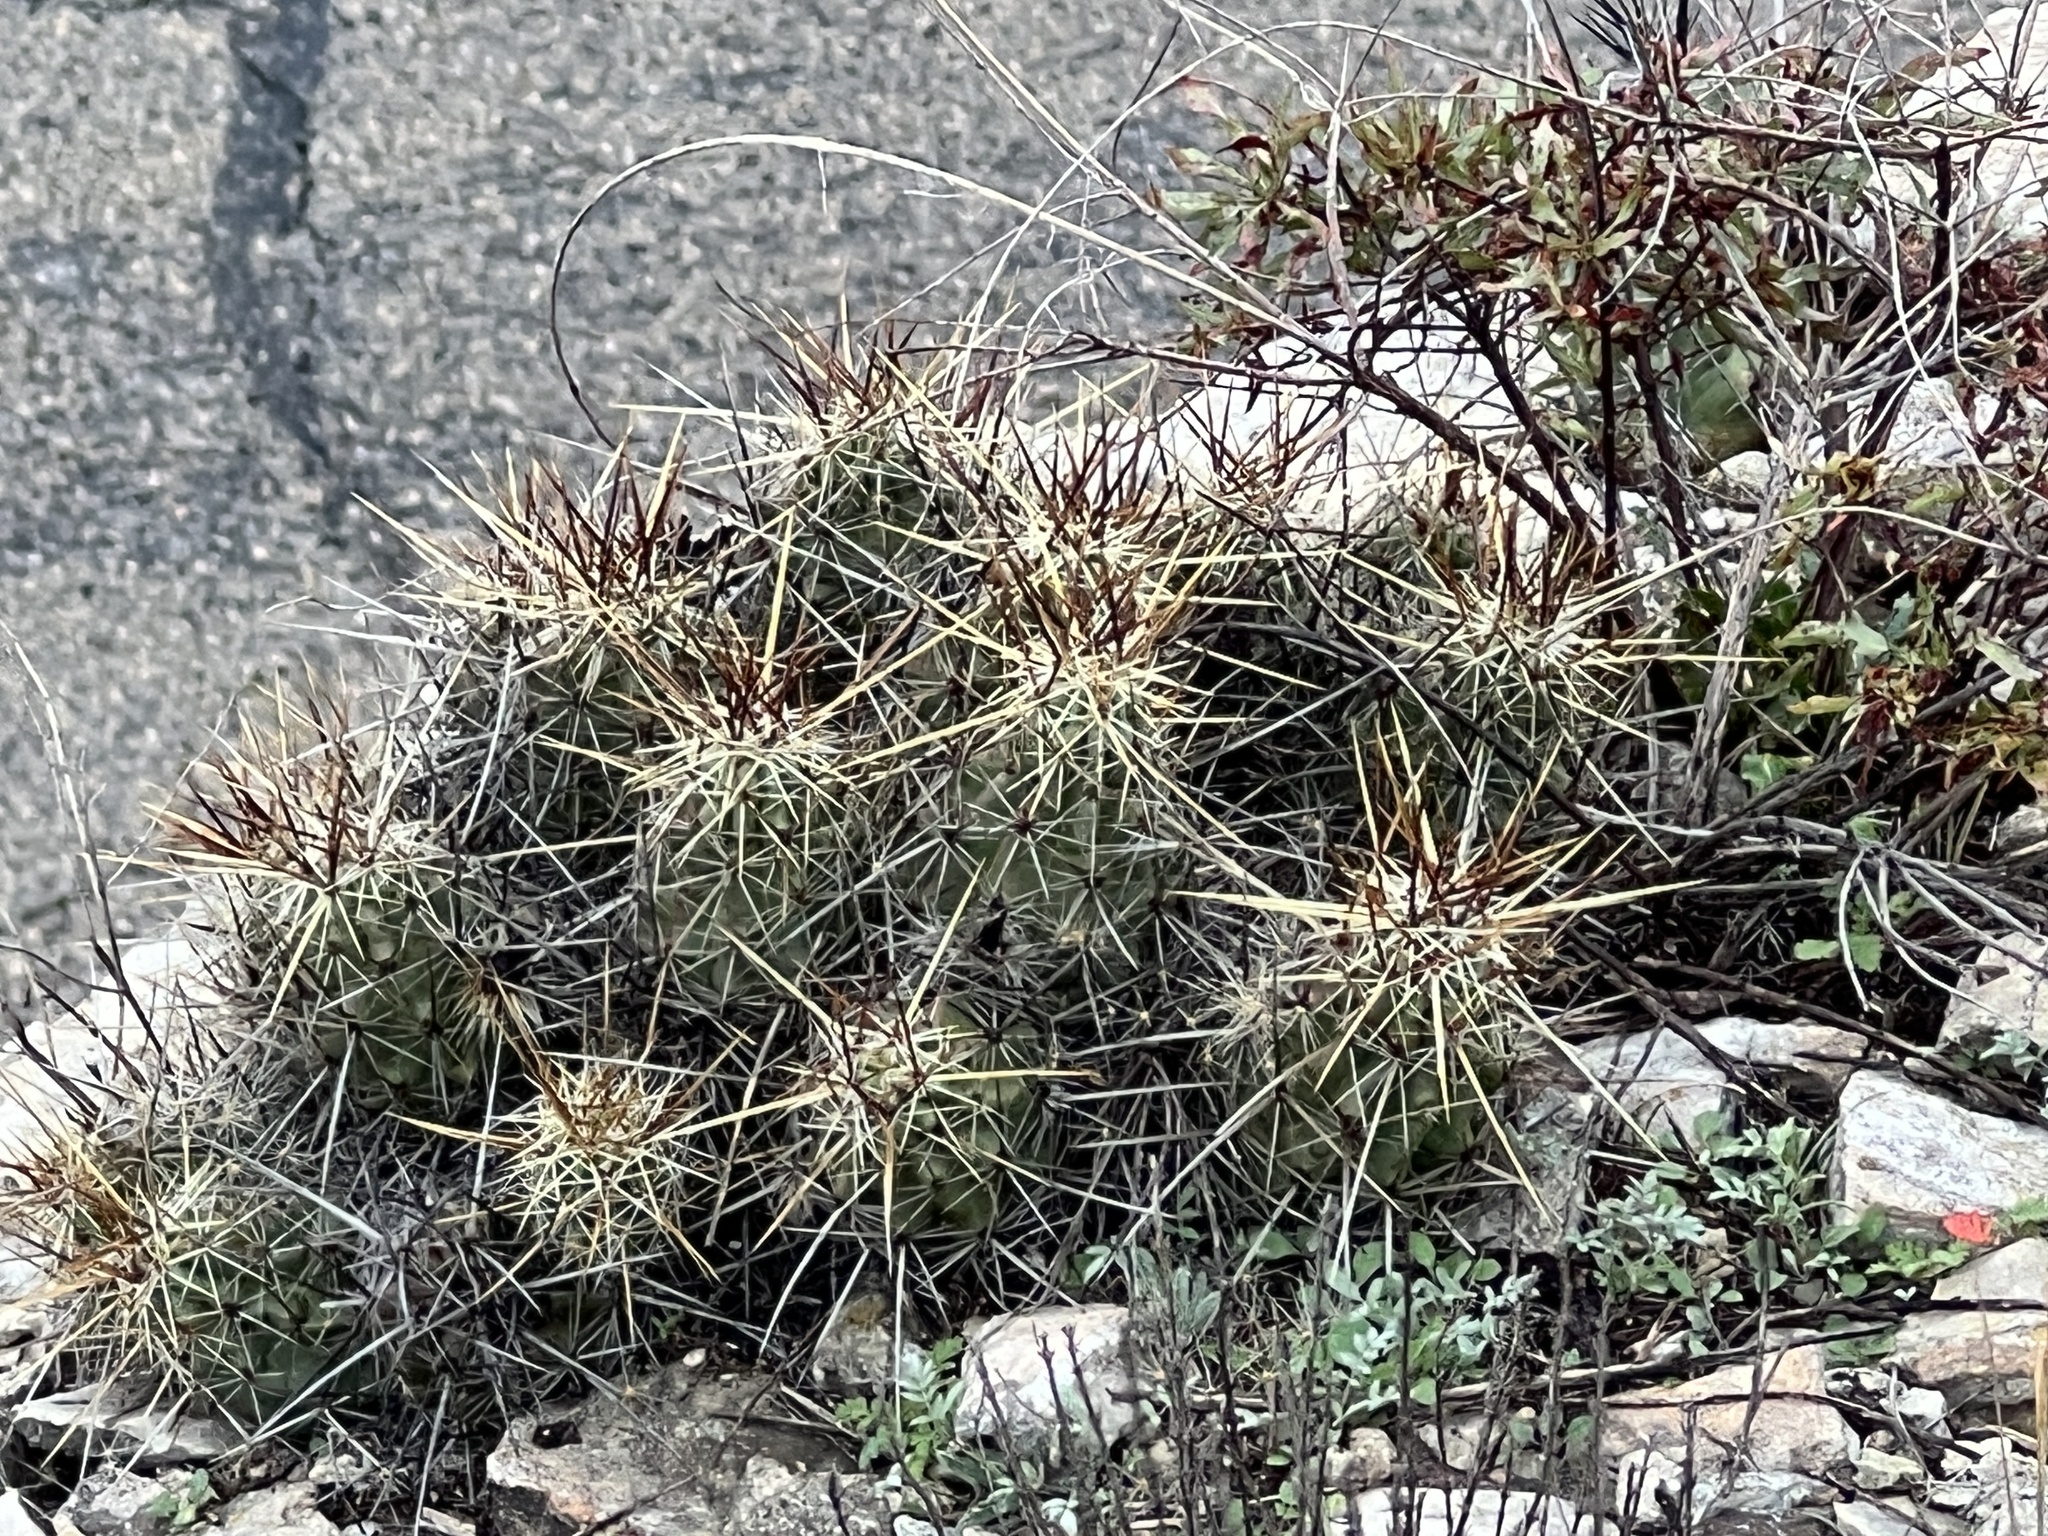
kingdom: Plantae
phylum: Tracheophyta
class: Magnoliopsida
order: Caryophyllales
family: Cactaceae
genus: Echinocereus
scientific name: Echinocereus enneacanthus
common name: Pitaya
